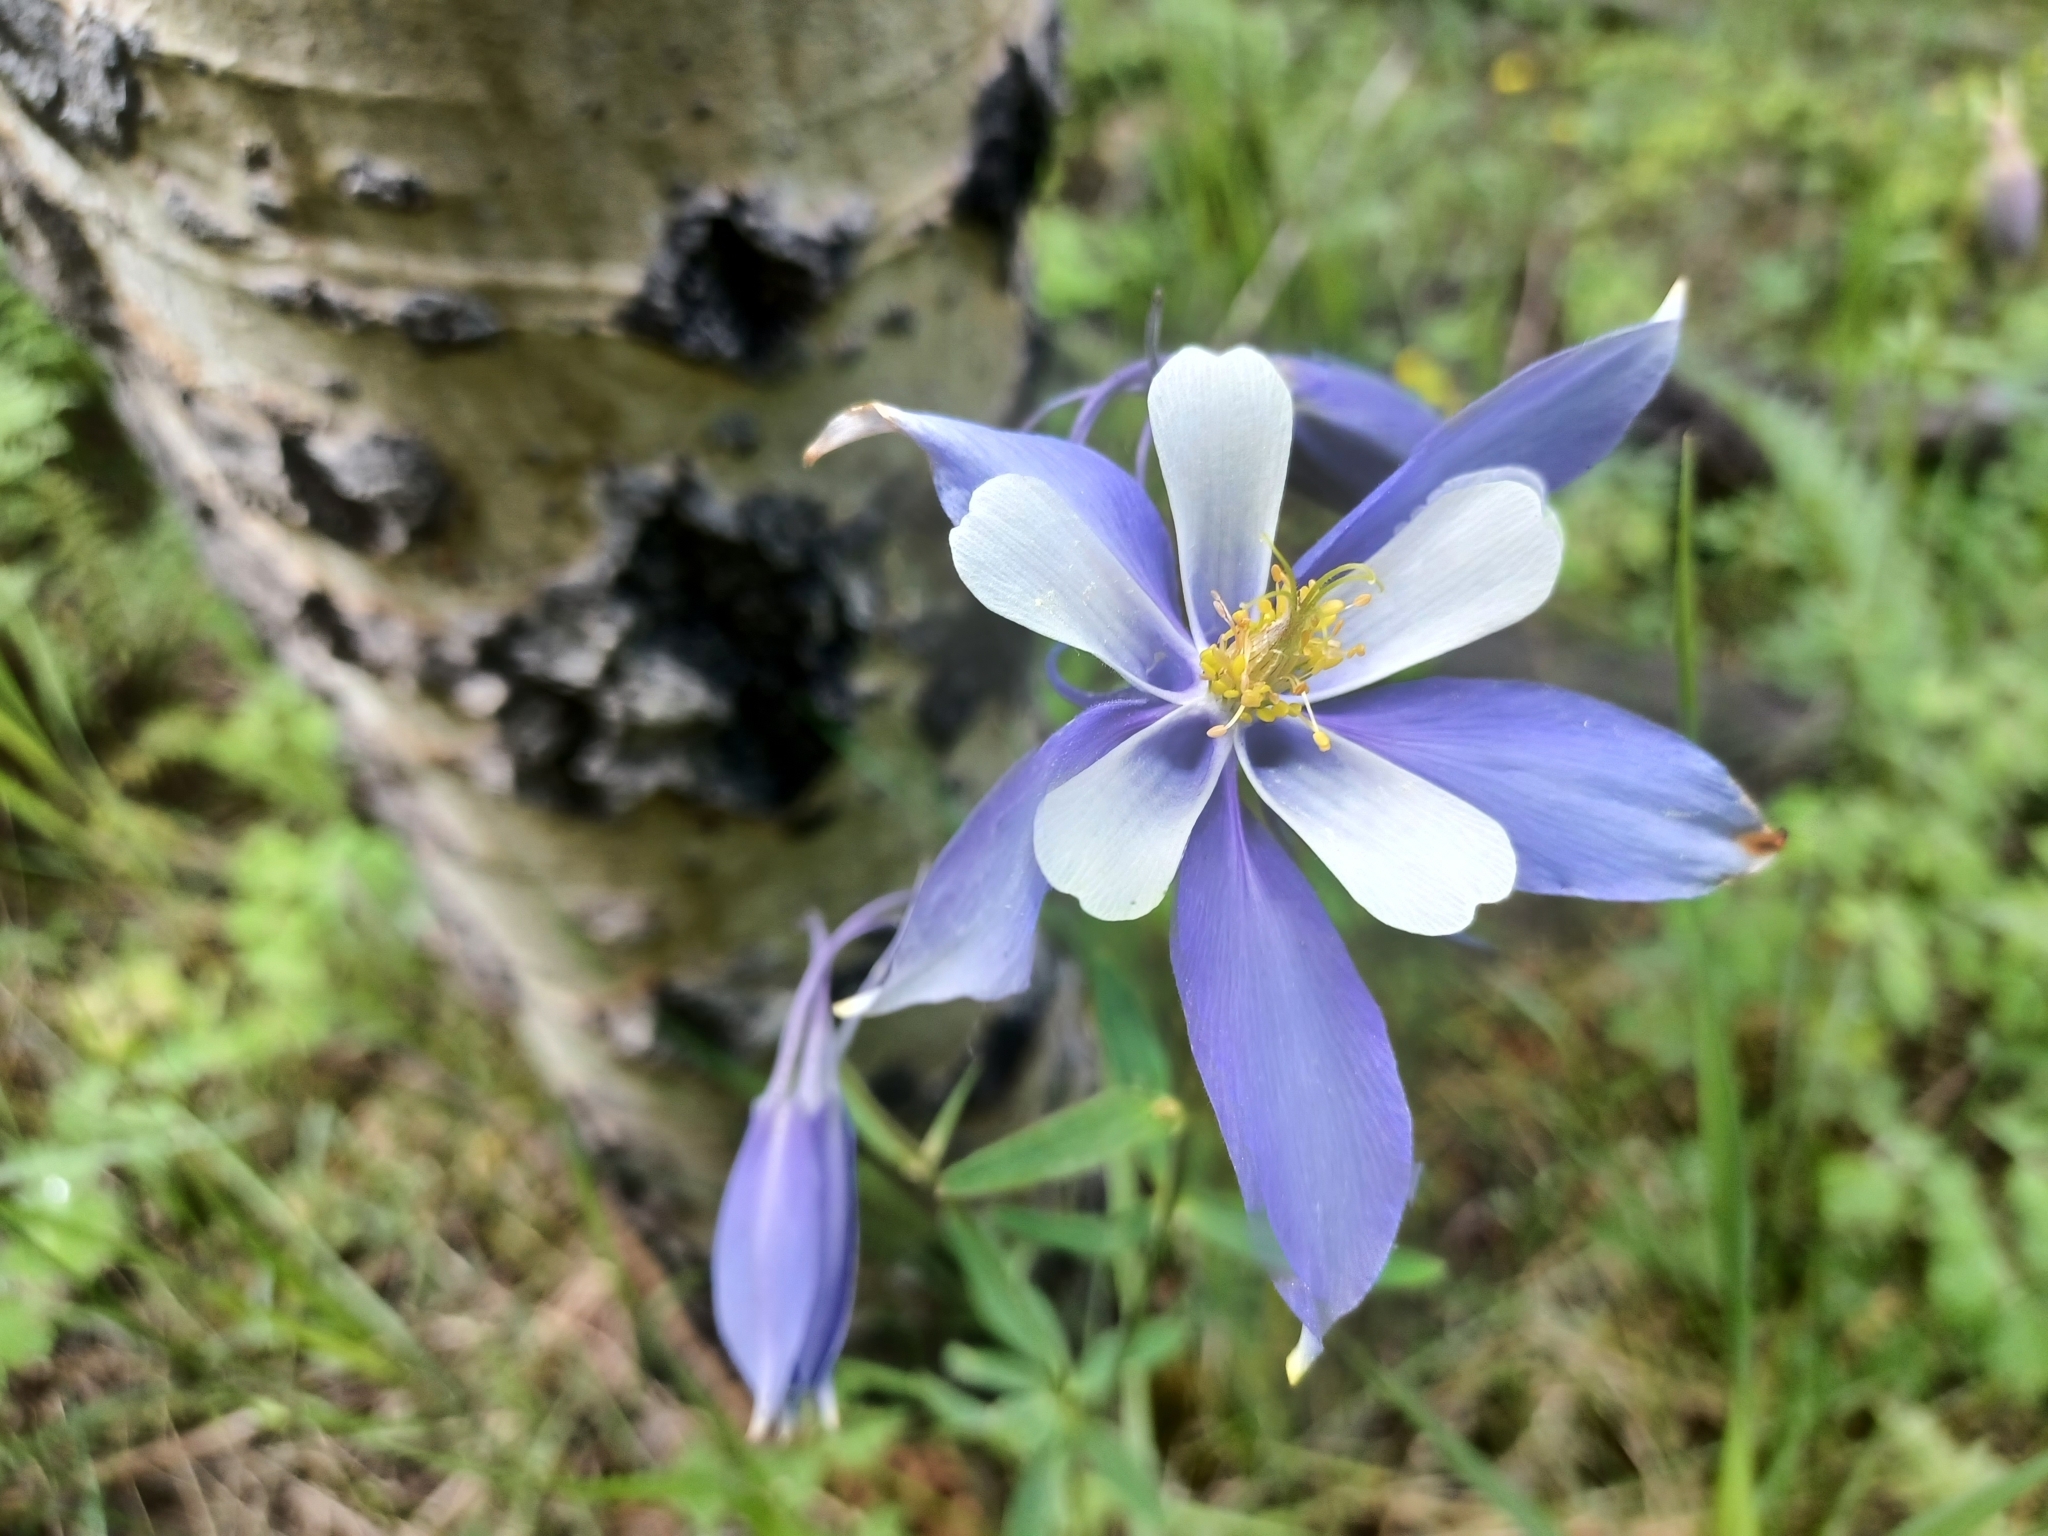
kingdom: Plantae
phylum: Tracheophyta
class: Magnoliopsida
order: Ranunculales
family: Ranunculaceae
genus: Aquilegia
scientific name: Aquilegia coerulea
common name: Rocky mountain columbine
